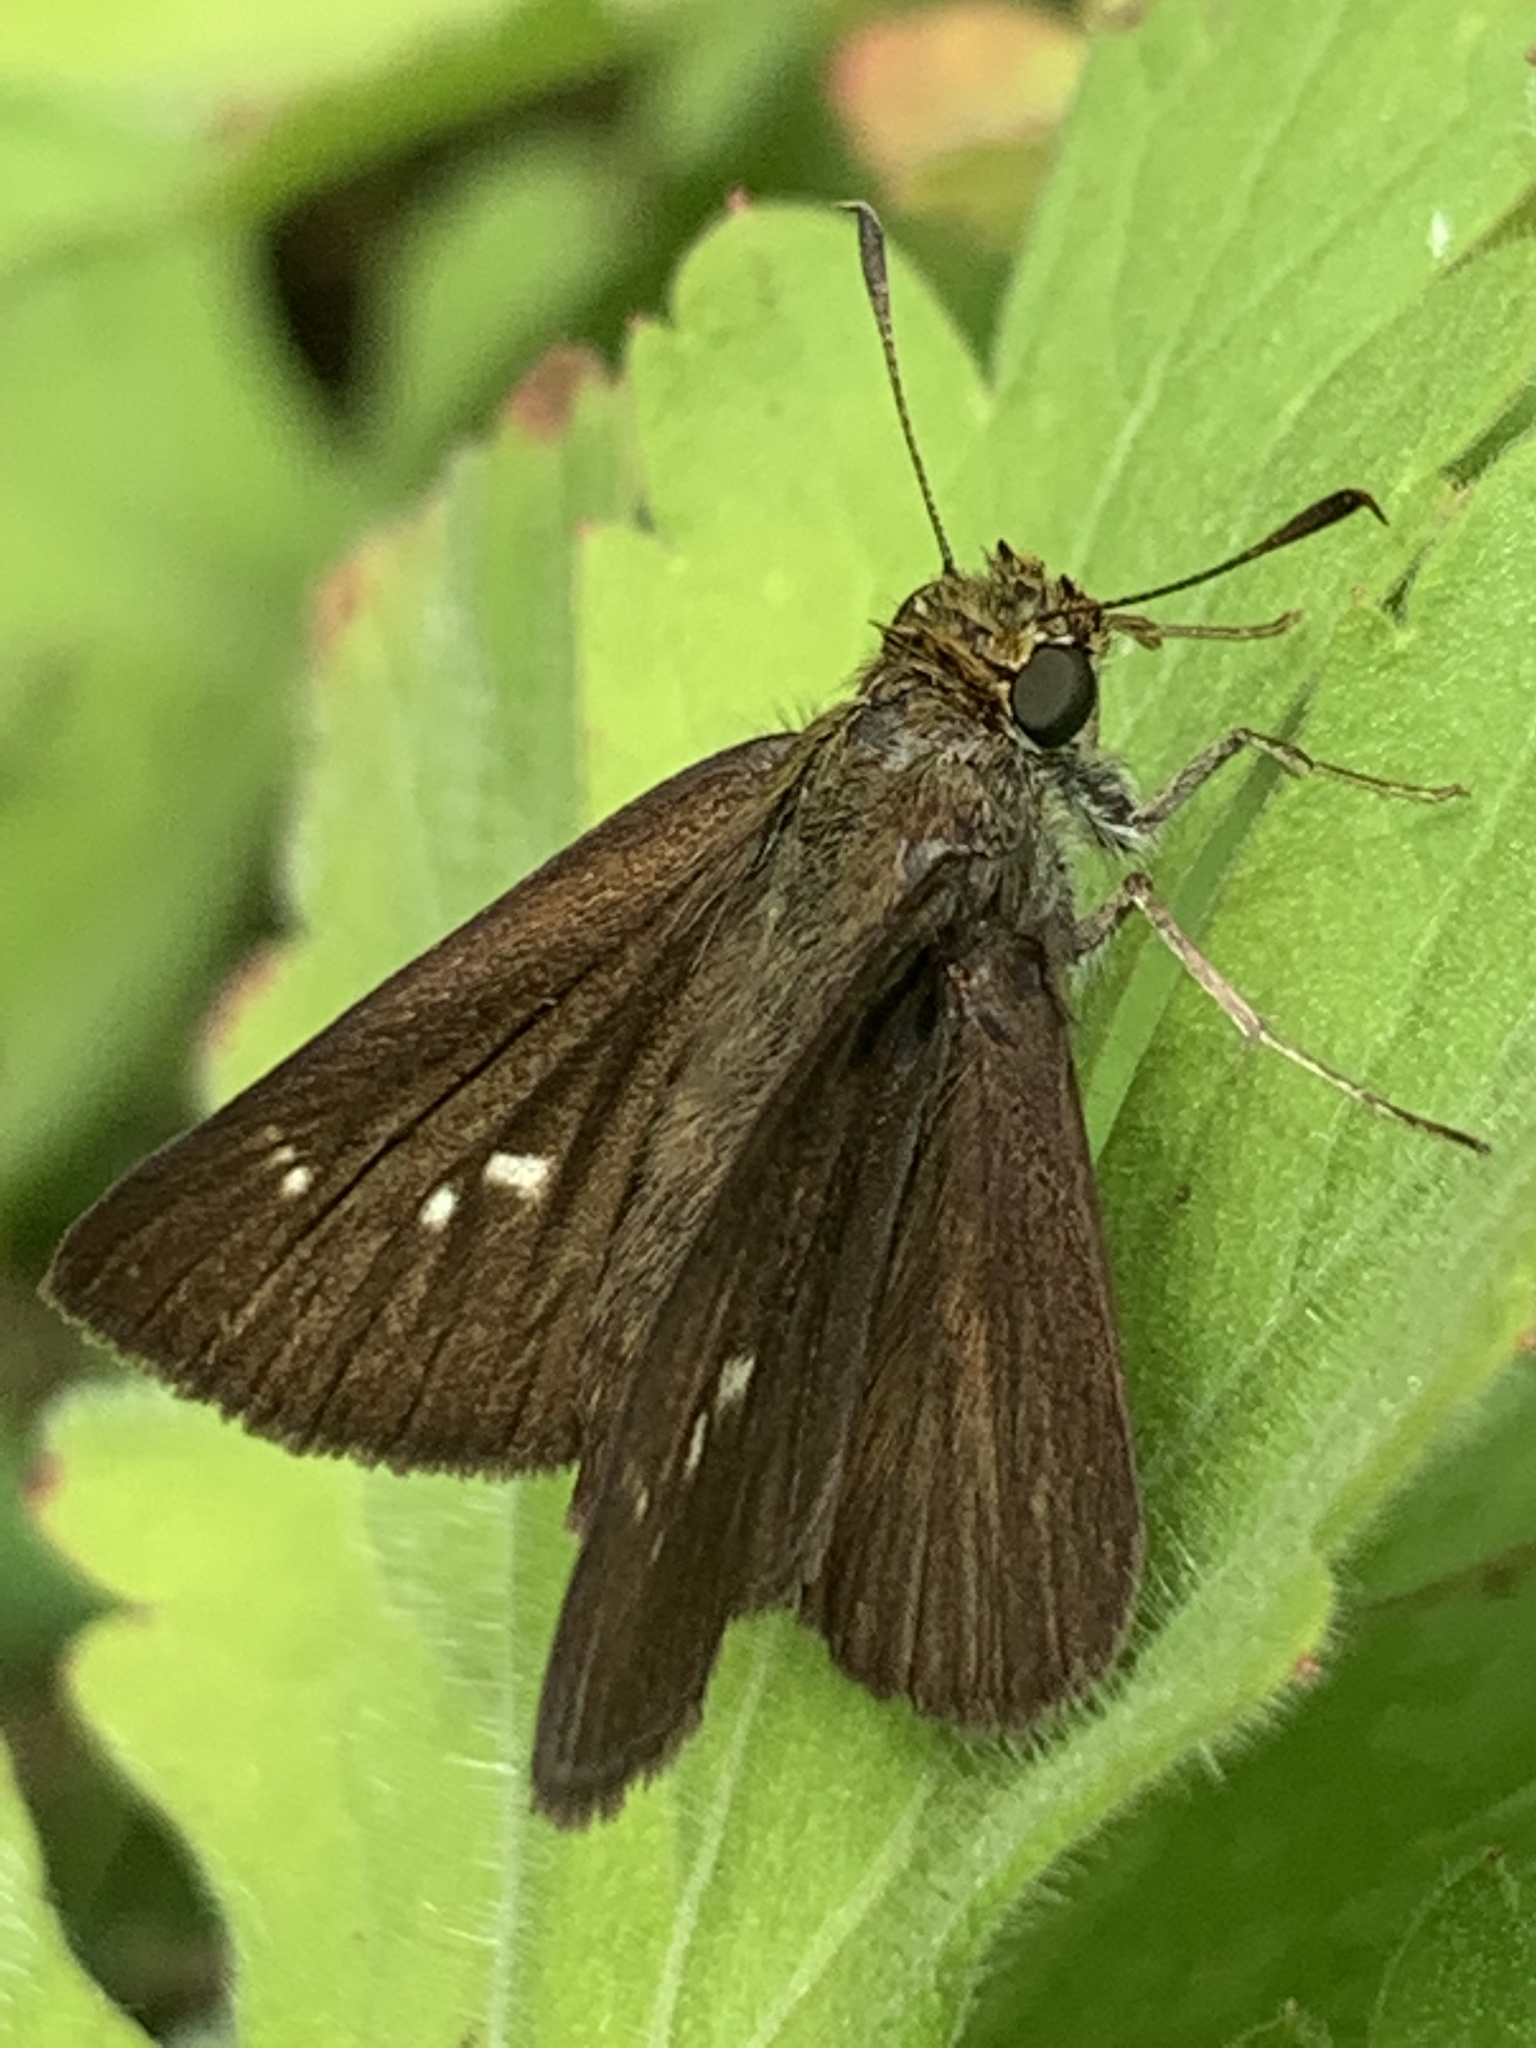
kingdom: Animalia
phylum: Arthropoda
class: Insecta
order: Lepidoptera
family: Hesperiidae
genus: Euphyes
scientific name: Euphyes vestris
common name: Dun skipper
